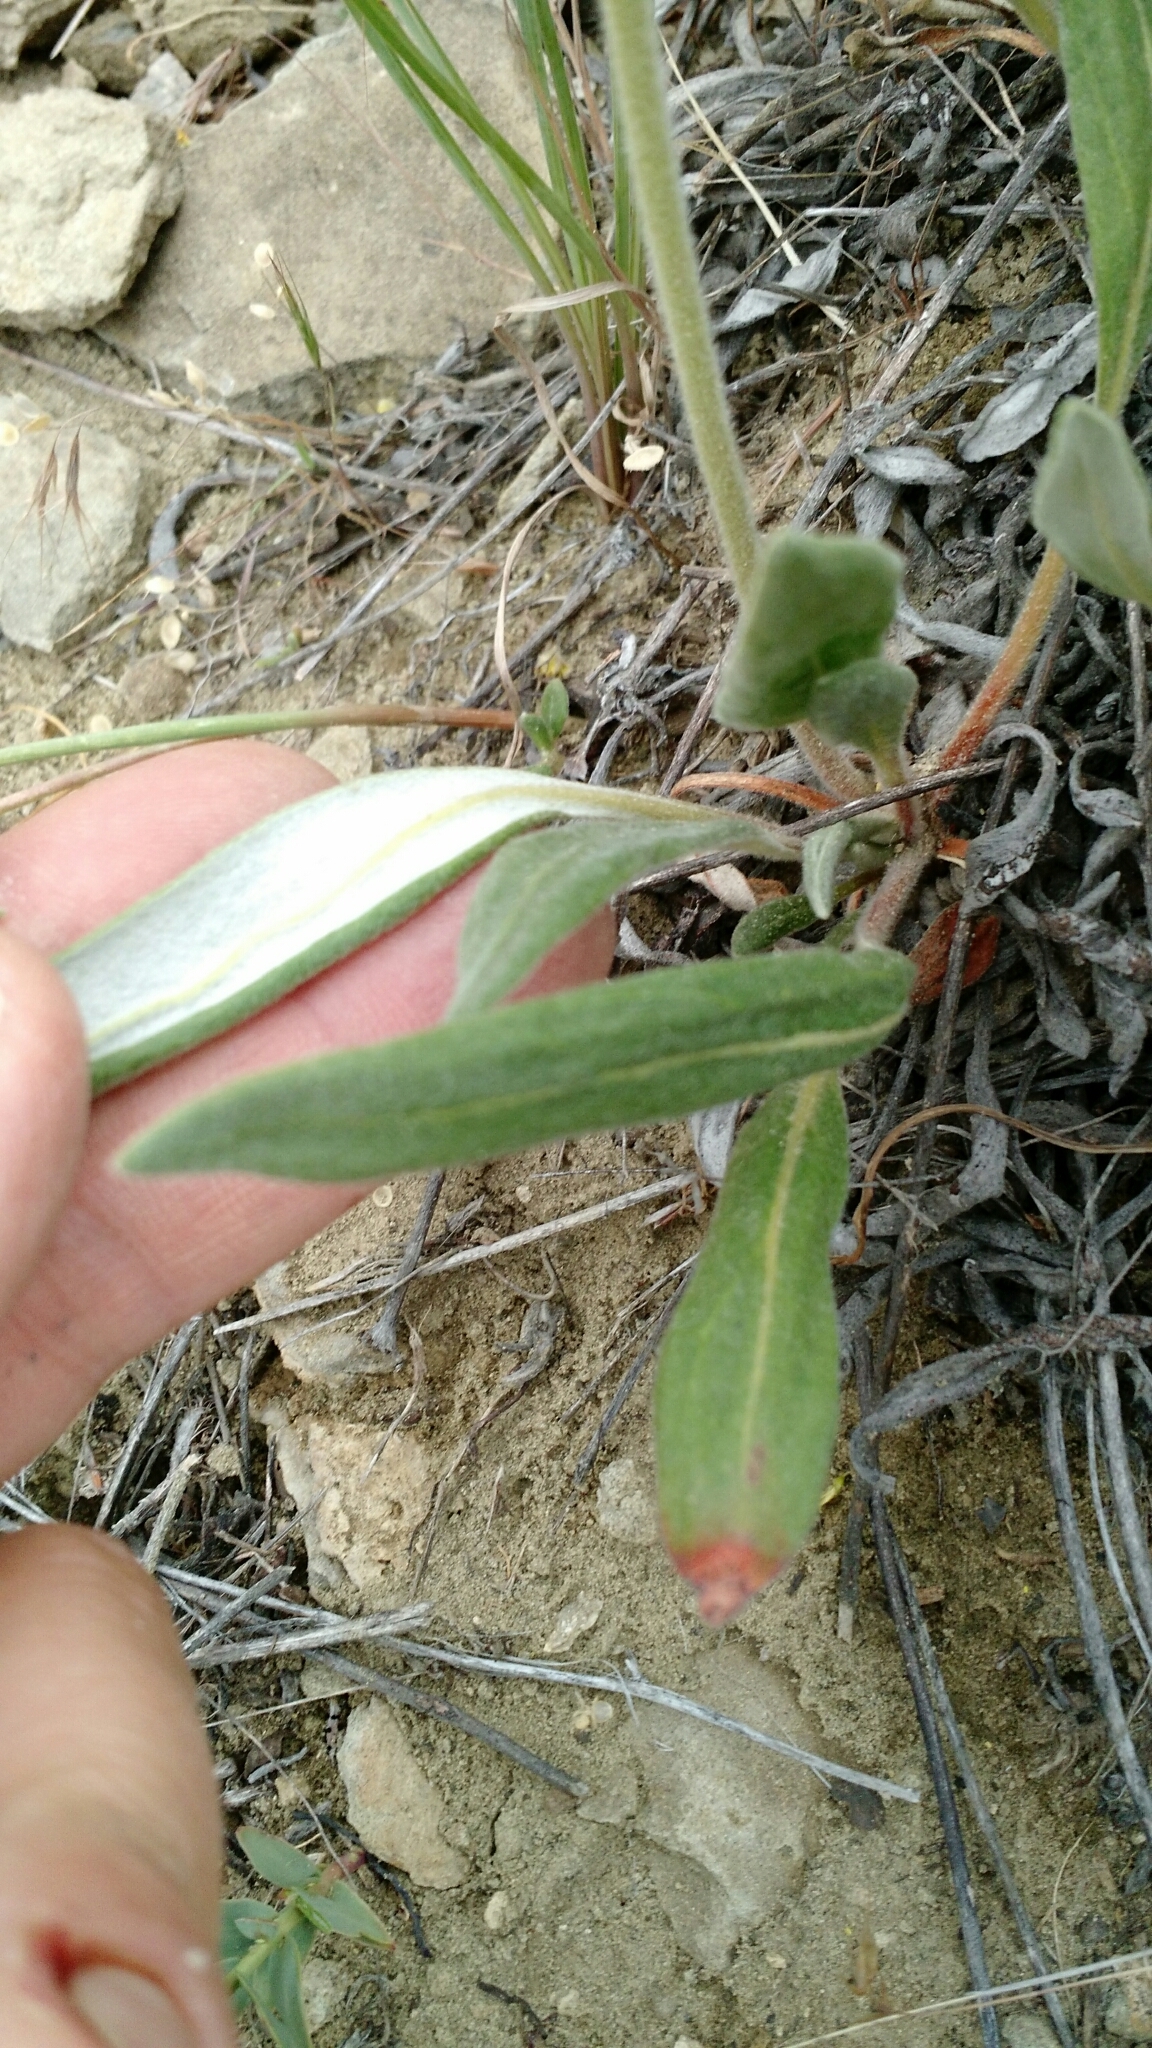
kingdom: Plantae
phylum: Tracheophyta
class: Magnoliopsida
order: Caryophyllales
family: Polygonaceae
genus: Eriogonum
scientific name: Eriogonum flavum
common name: Alpine golden wild buckwheat
